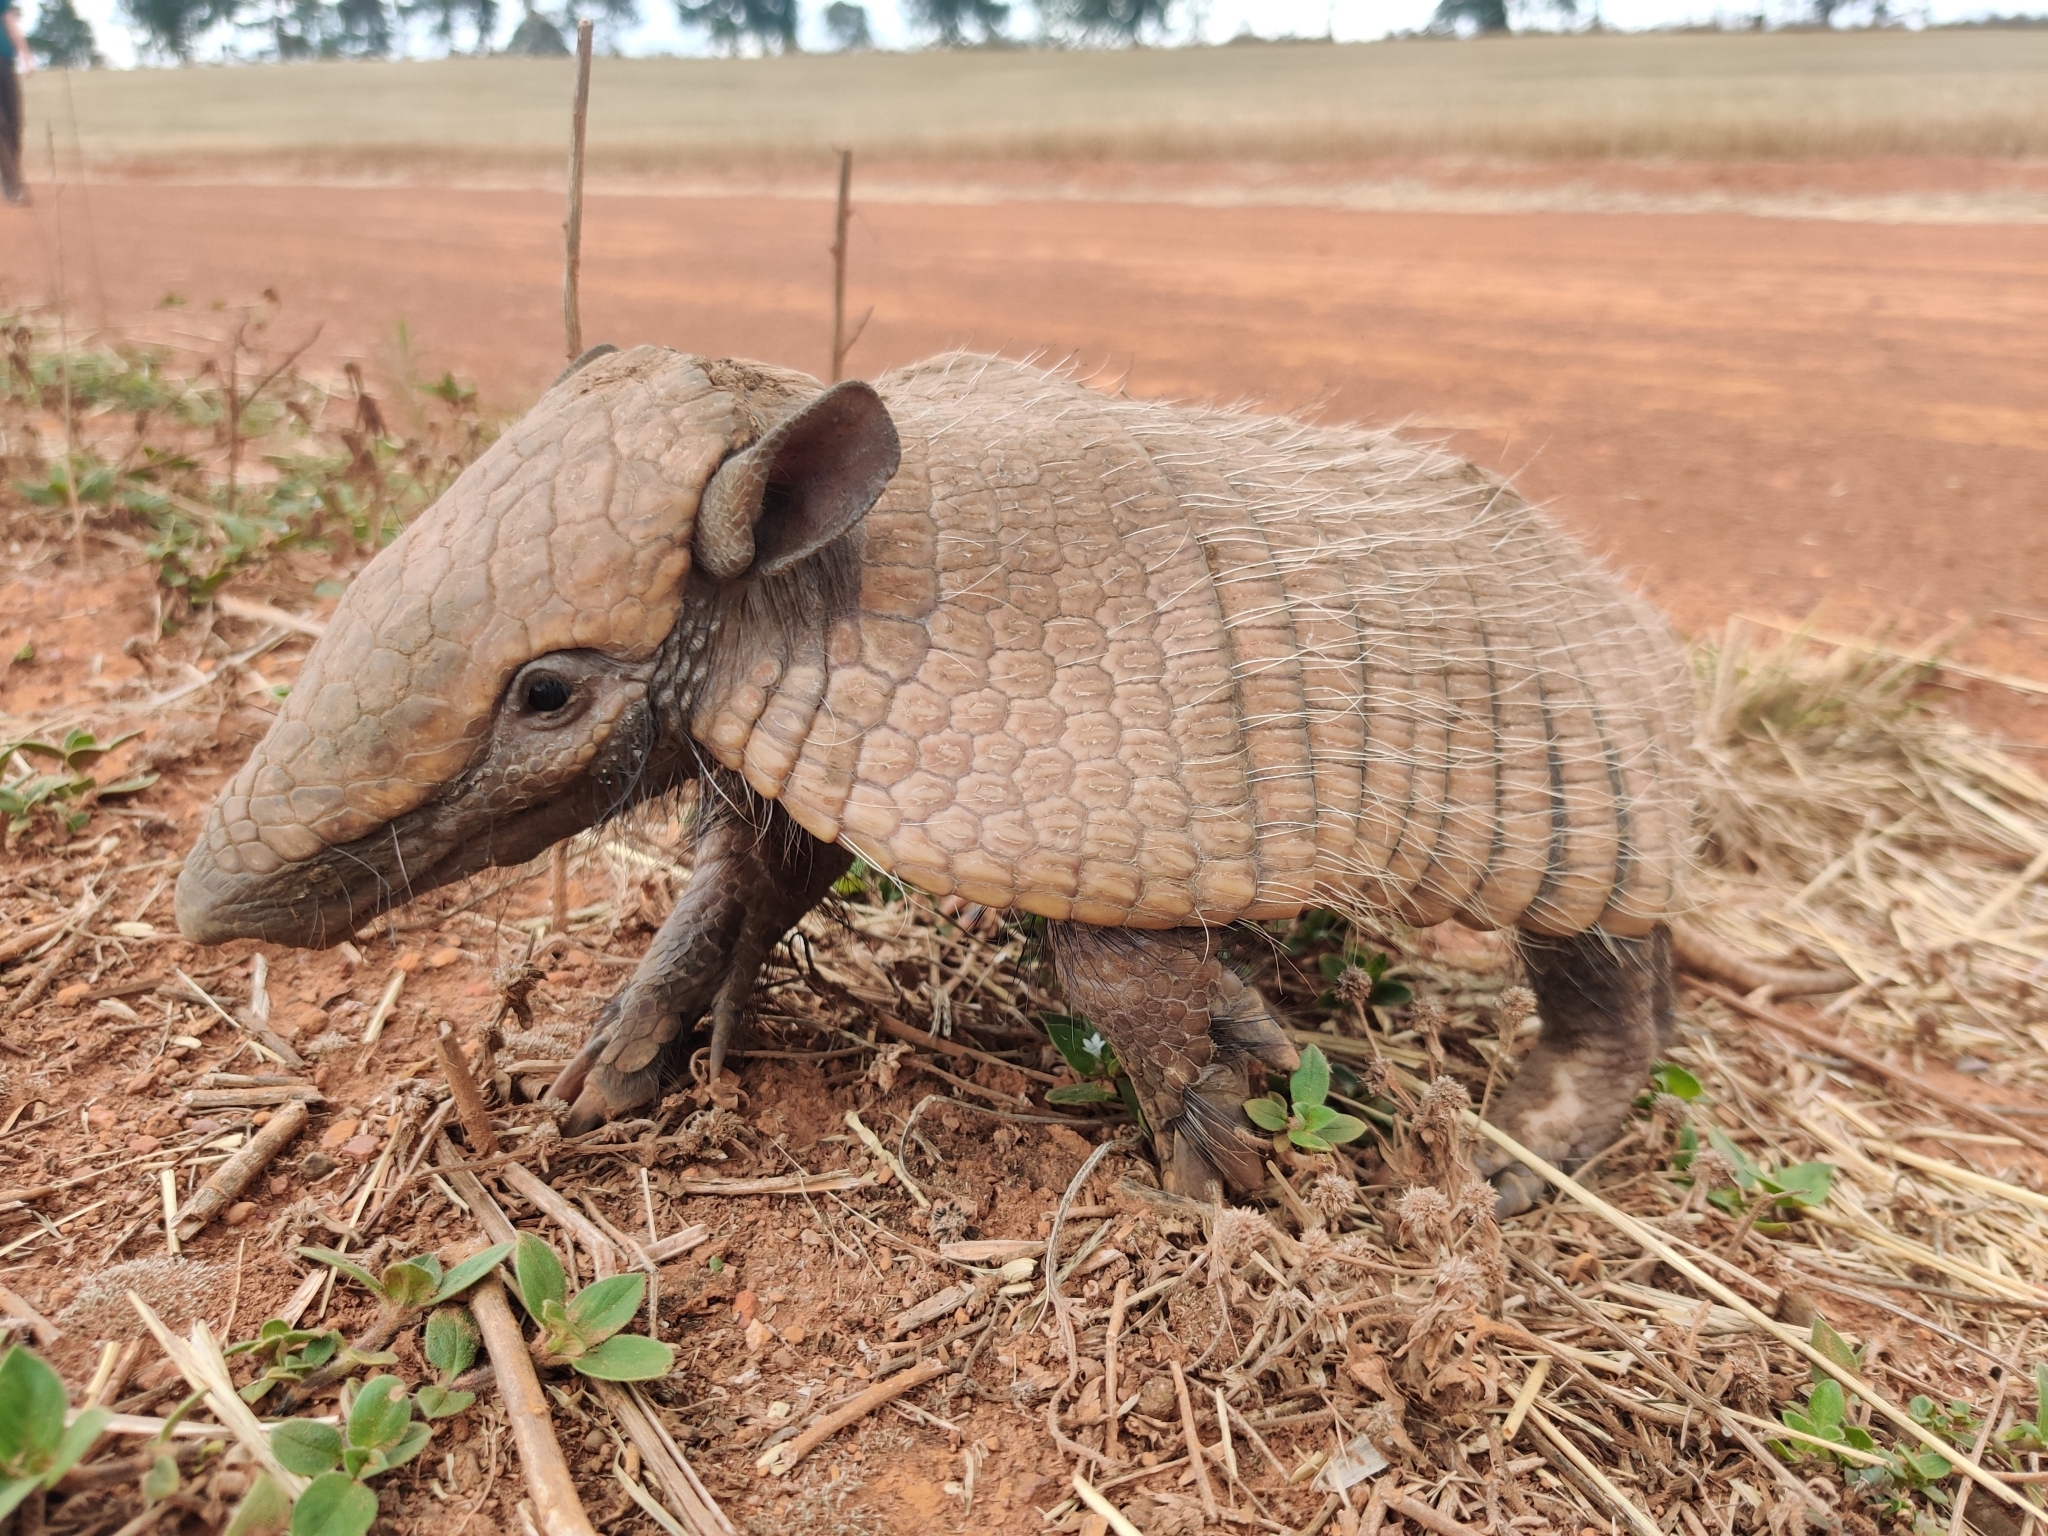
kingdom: Animalia
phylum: Chordata
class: Mammalia
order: Cingulata
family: Dasypodidae
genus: Euphractus
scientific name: Euphractus sexcinctus
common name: Six-banded armadillo
